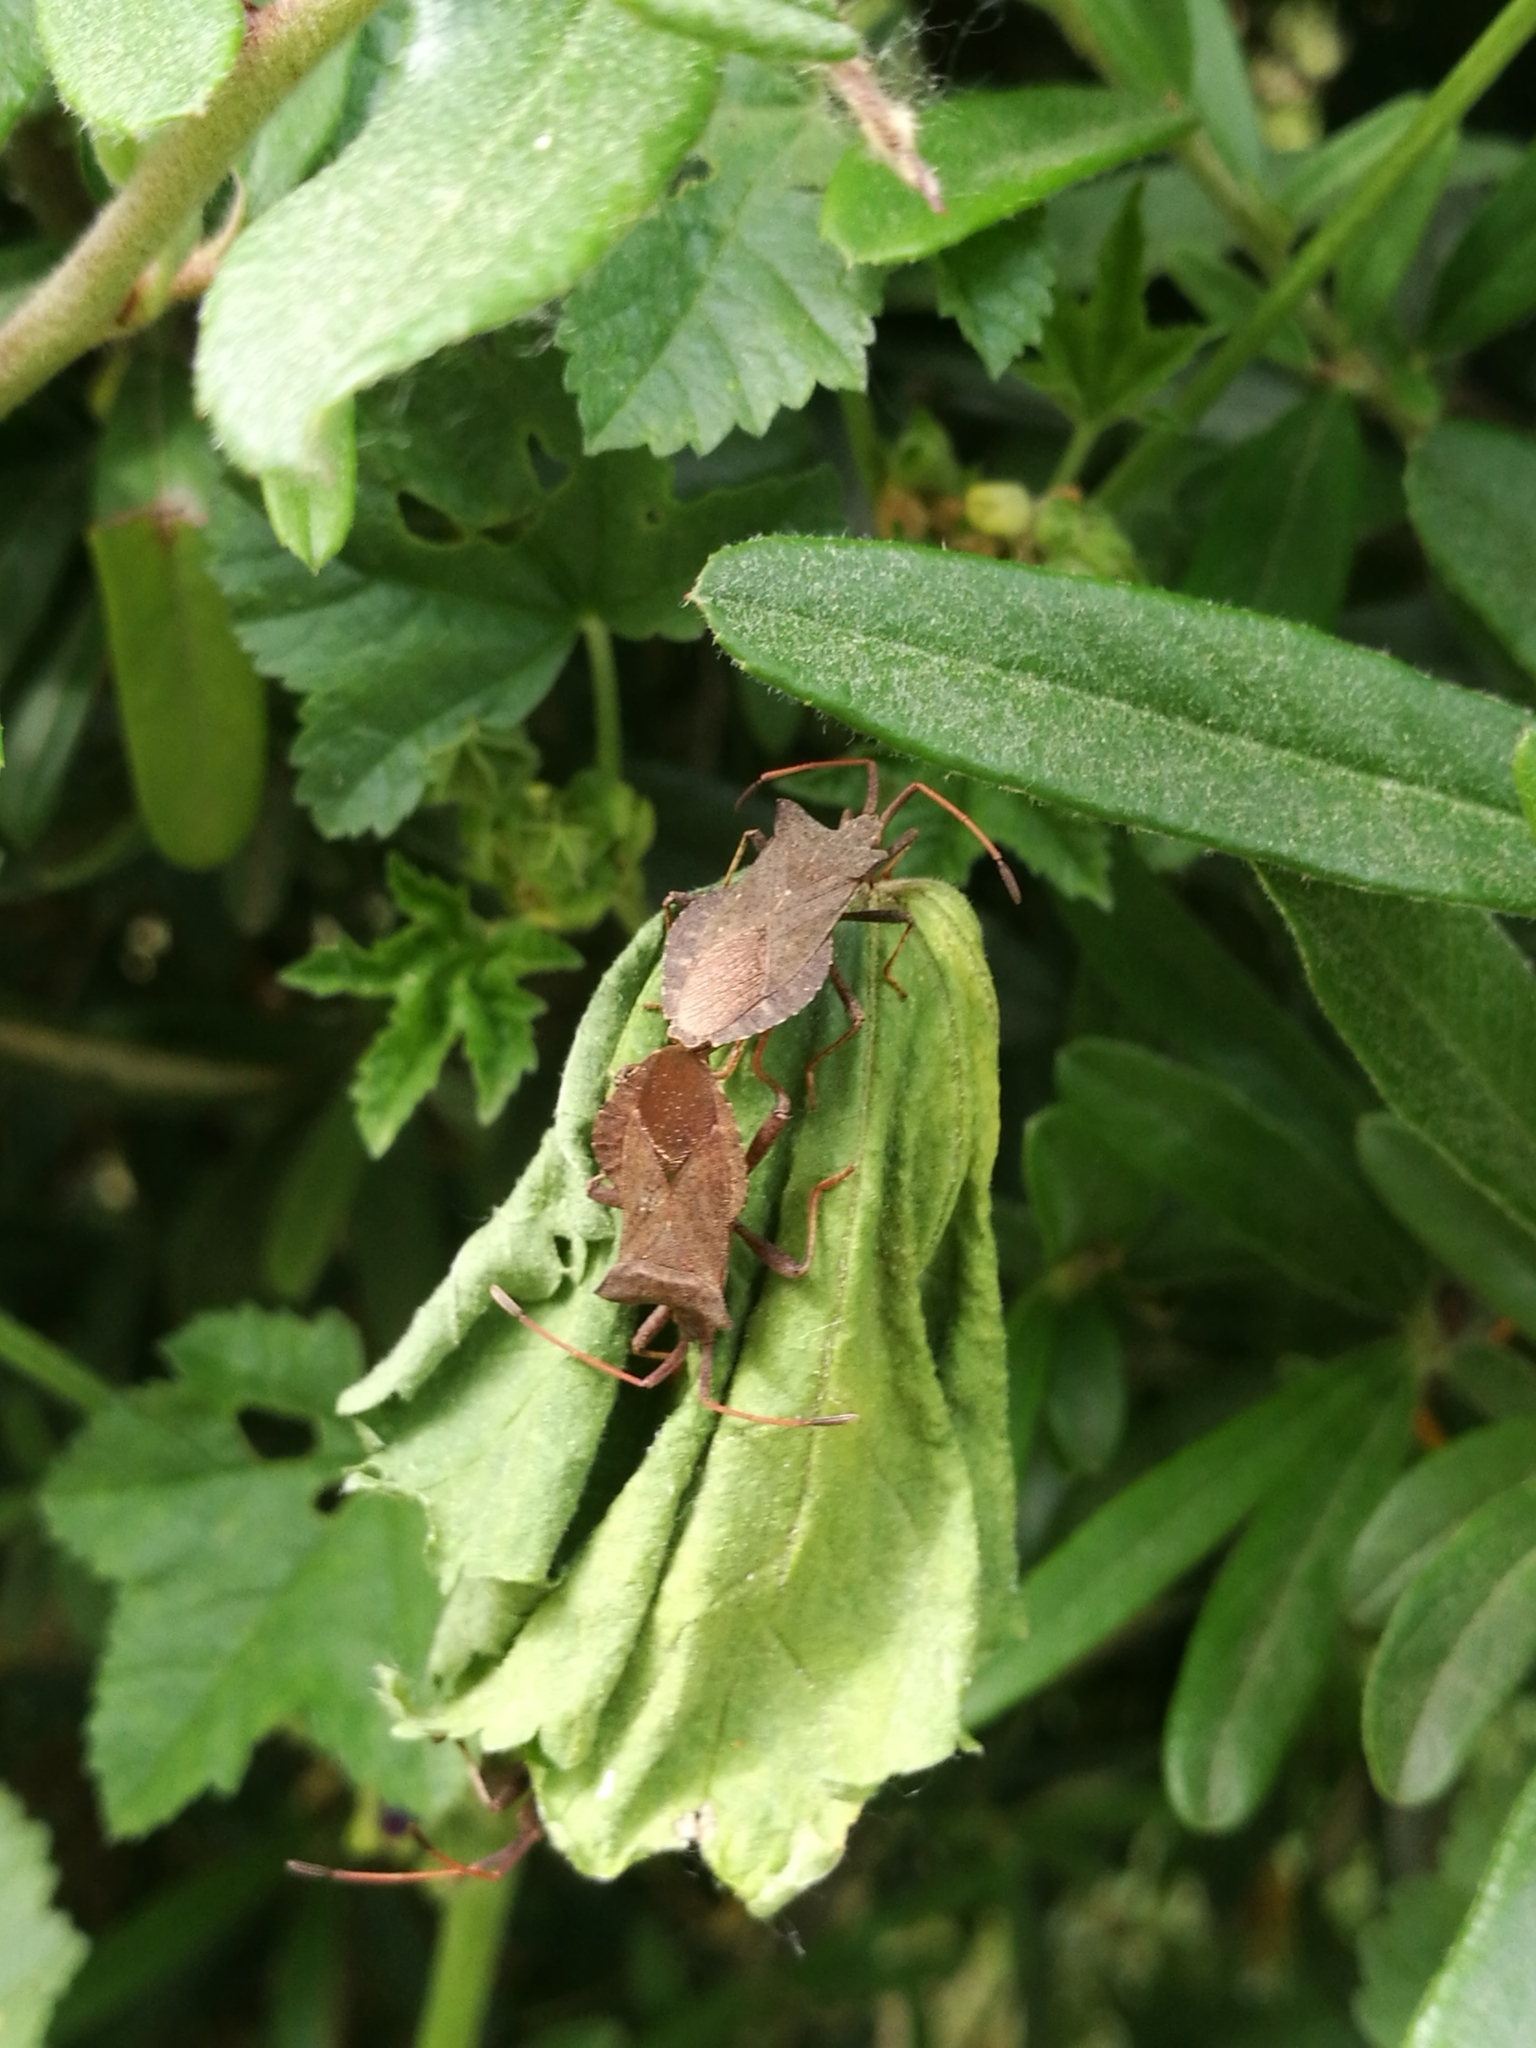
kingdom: Animalia
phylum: Arthropoda
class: Insecta
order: Hemiptera
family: Coreidae
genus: Coreus
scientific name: Coreus marginatus
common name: Dock bug
